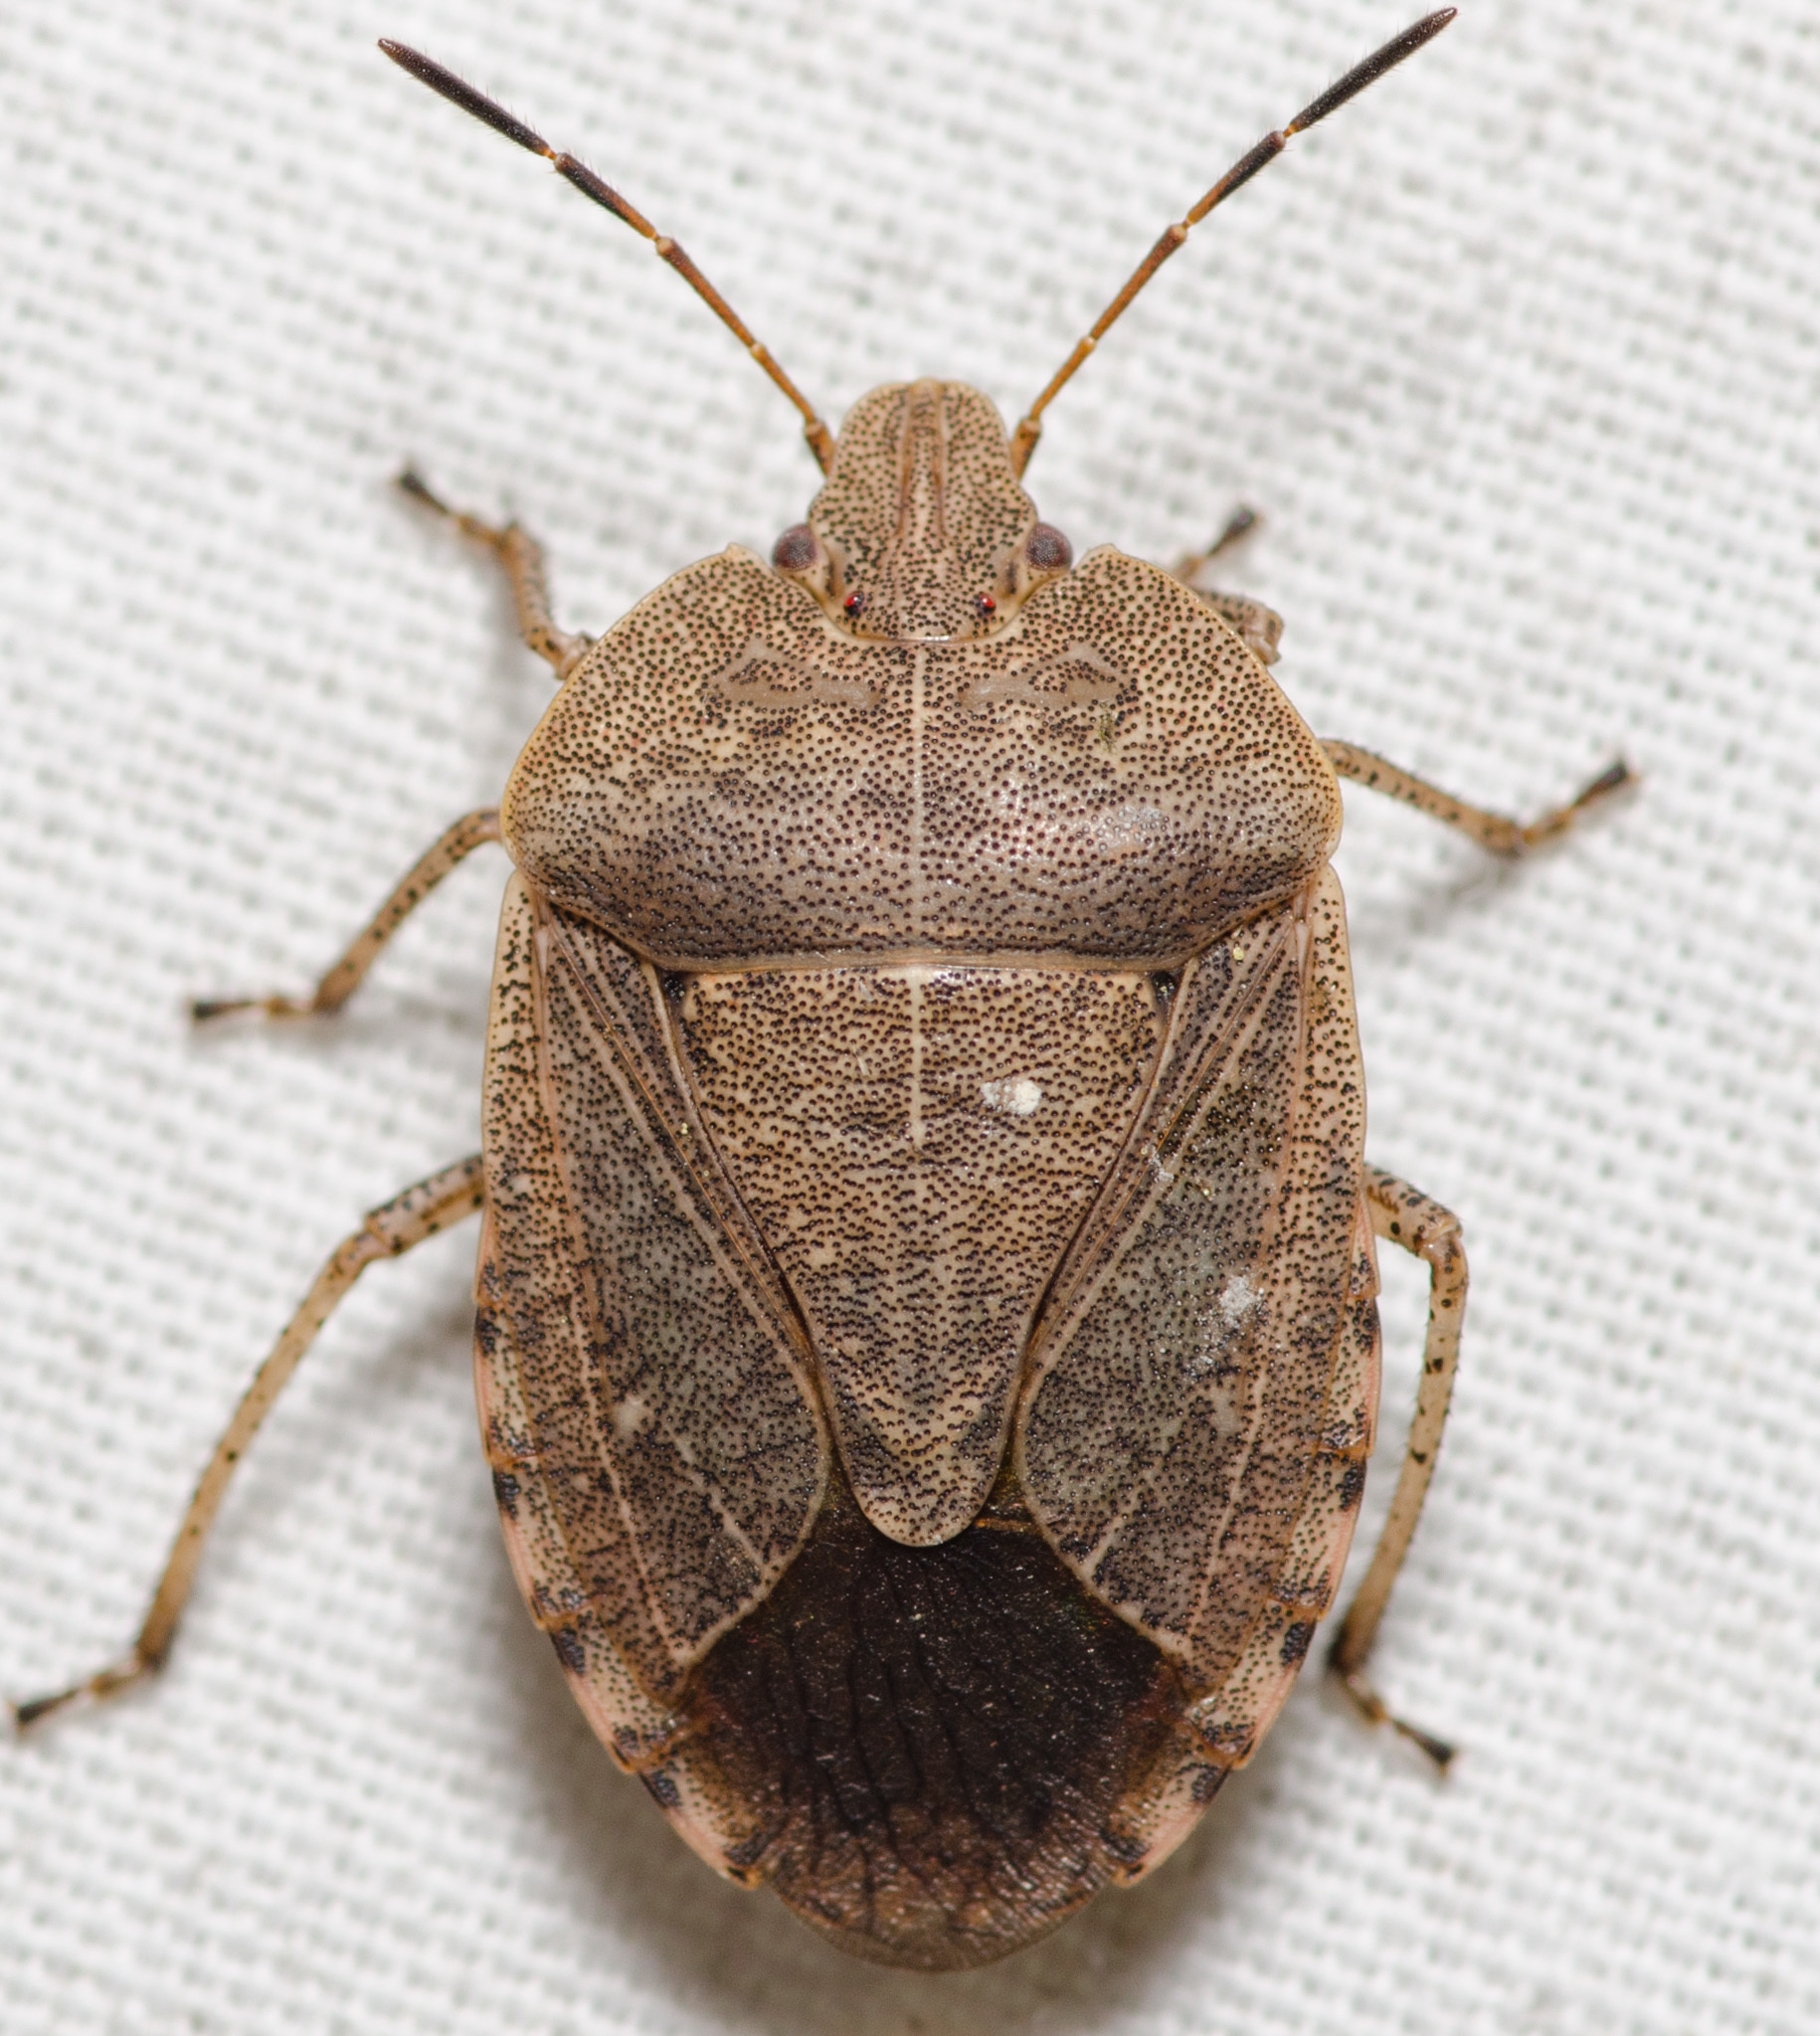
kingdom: Animalia
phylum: Arthropoda
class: Insecta
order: Hemiptera
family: Pentatomidae
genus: Menecles
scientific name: Menecles insertus
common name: Elf shoe stink bug
